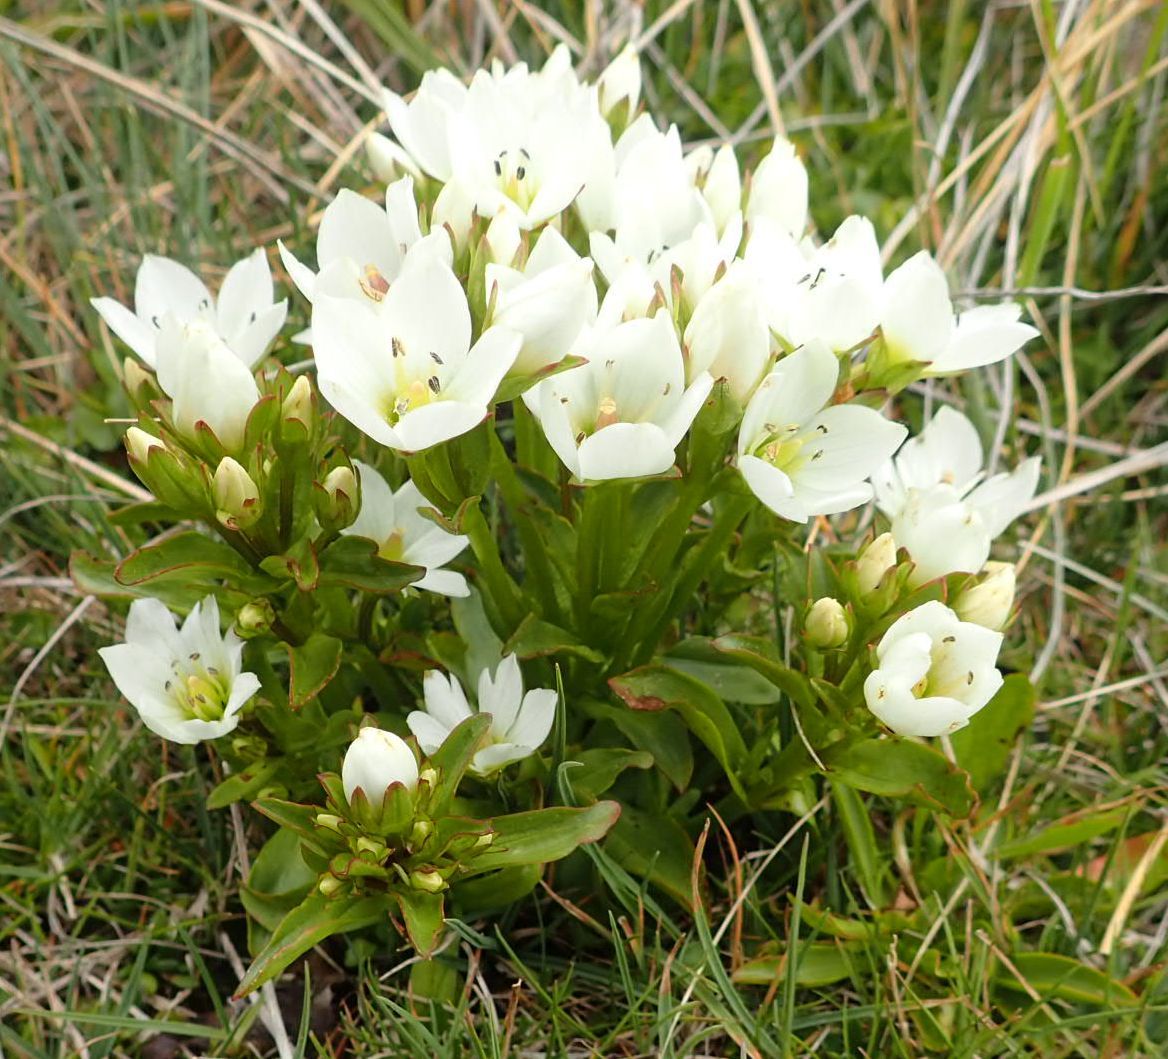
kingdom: Plantae
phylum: Tracheophyta
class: Magnoliopsida
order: Gentianales
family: Gentianaceae
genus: Gentianella
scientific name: Gentianella divisa
